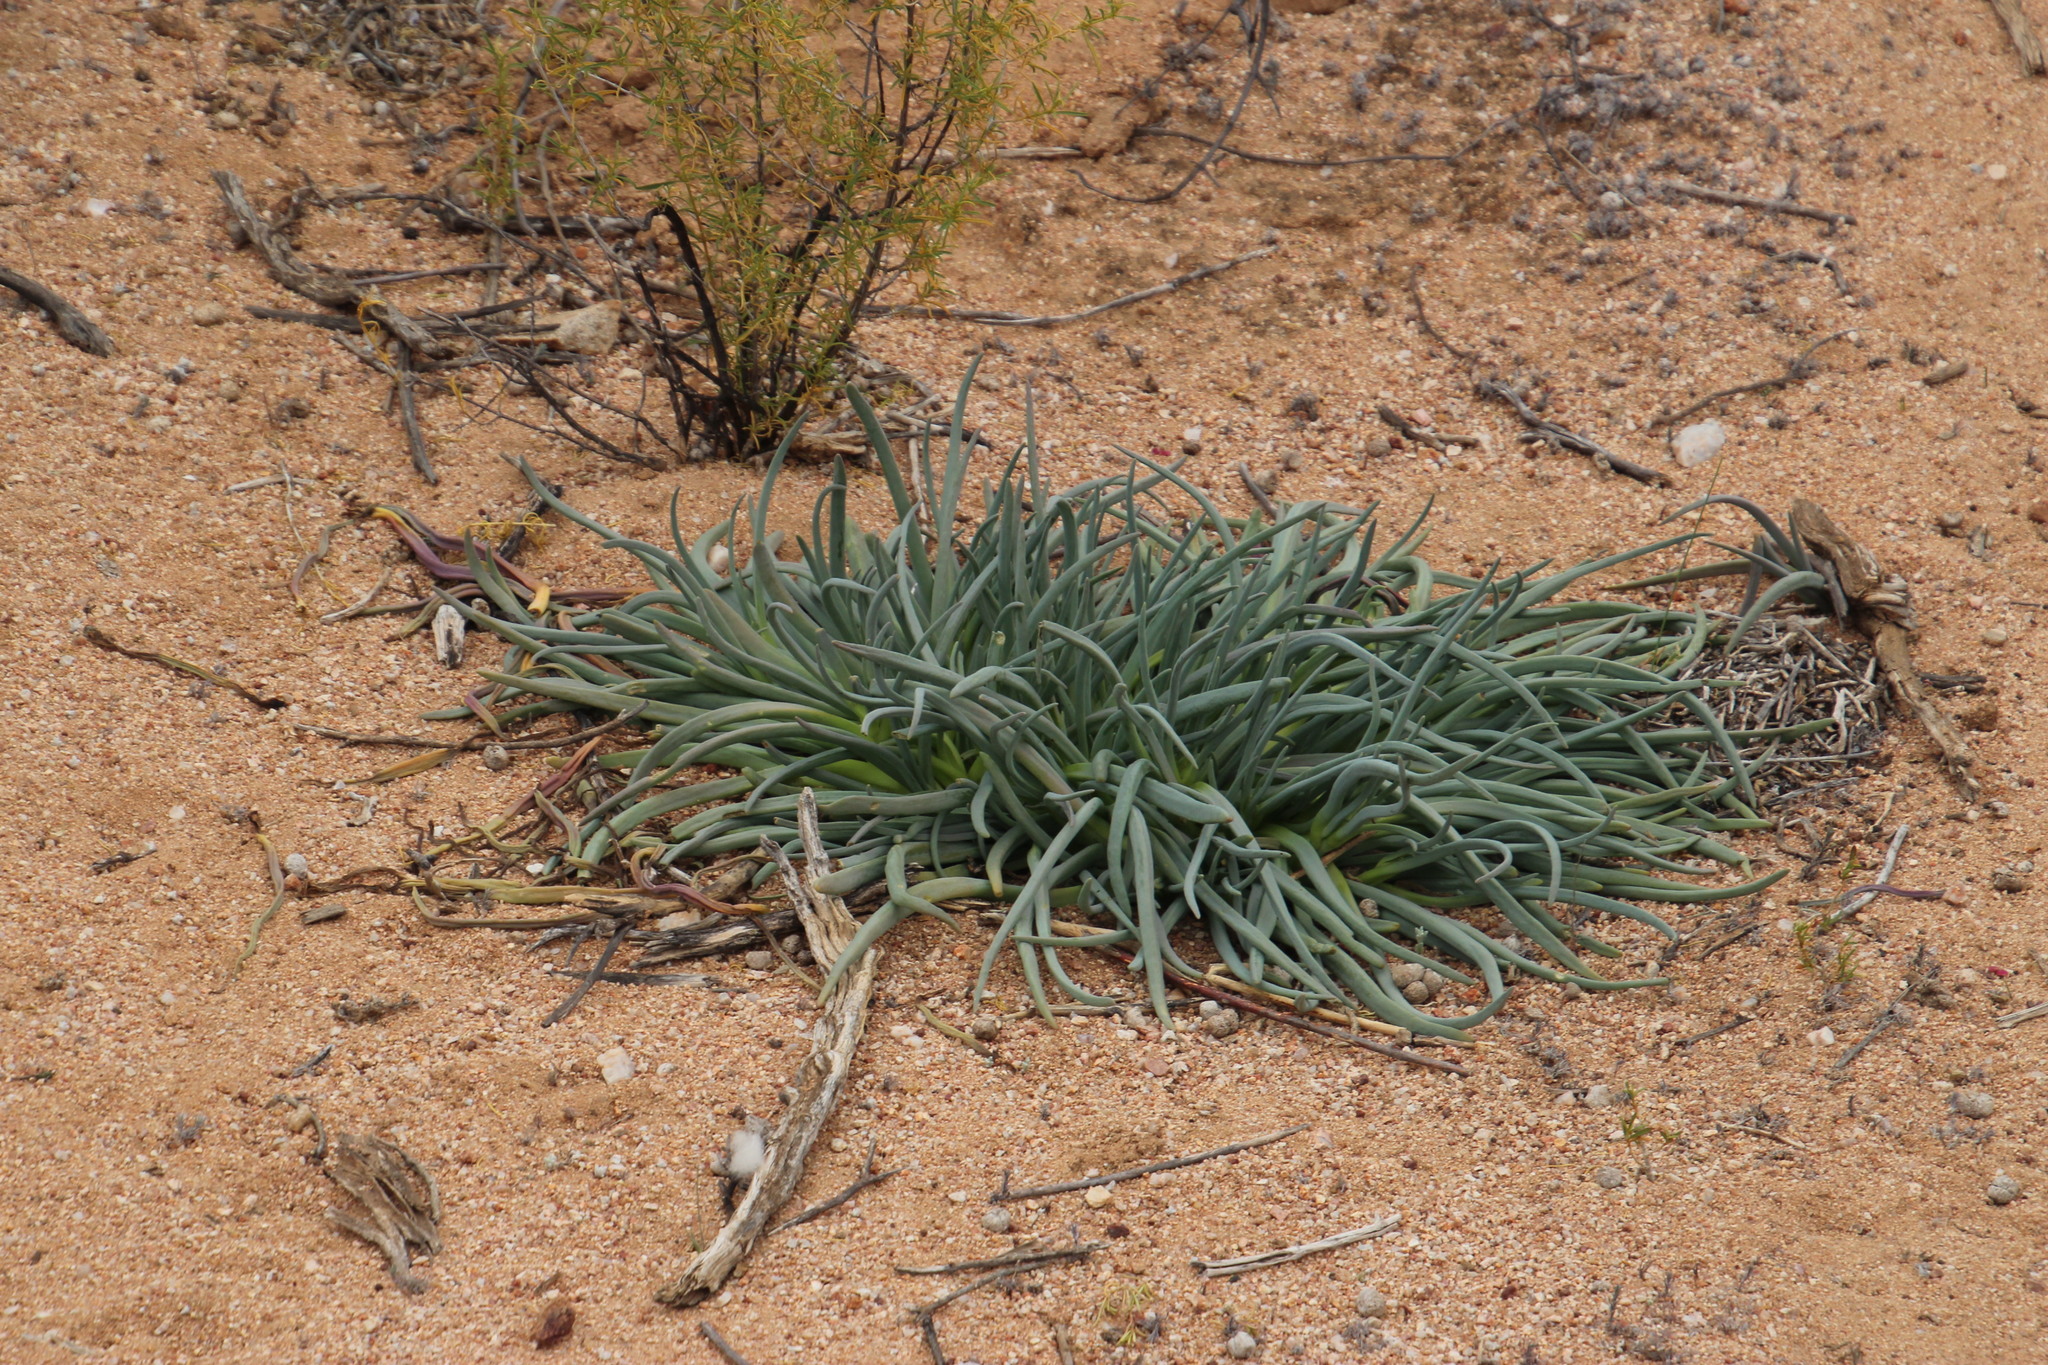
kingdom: Plantae
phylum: Tracheophyta
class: Magnoliopsida
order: Caryophyllales
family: Aizoaceae
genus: Conicosia
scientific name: Conicosia elongata
